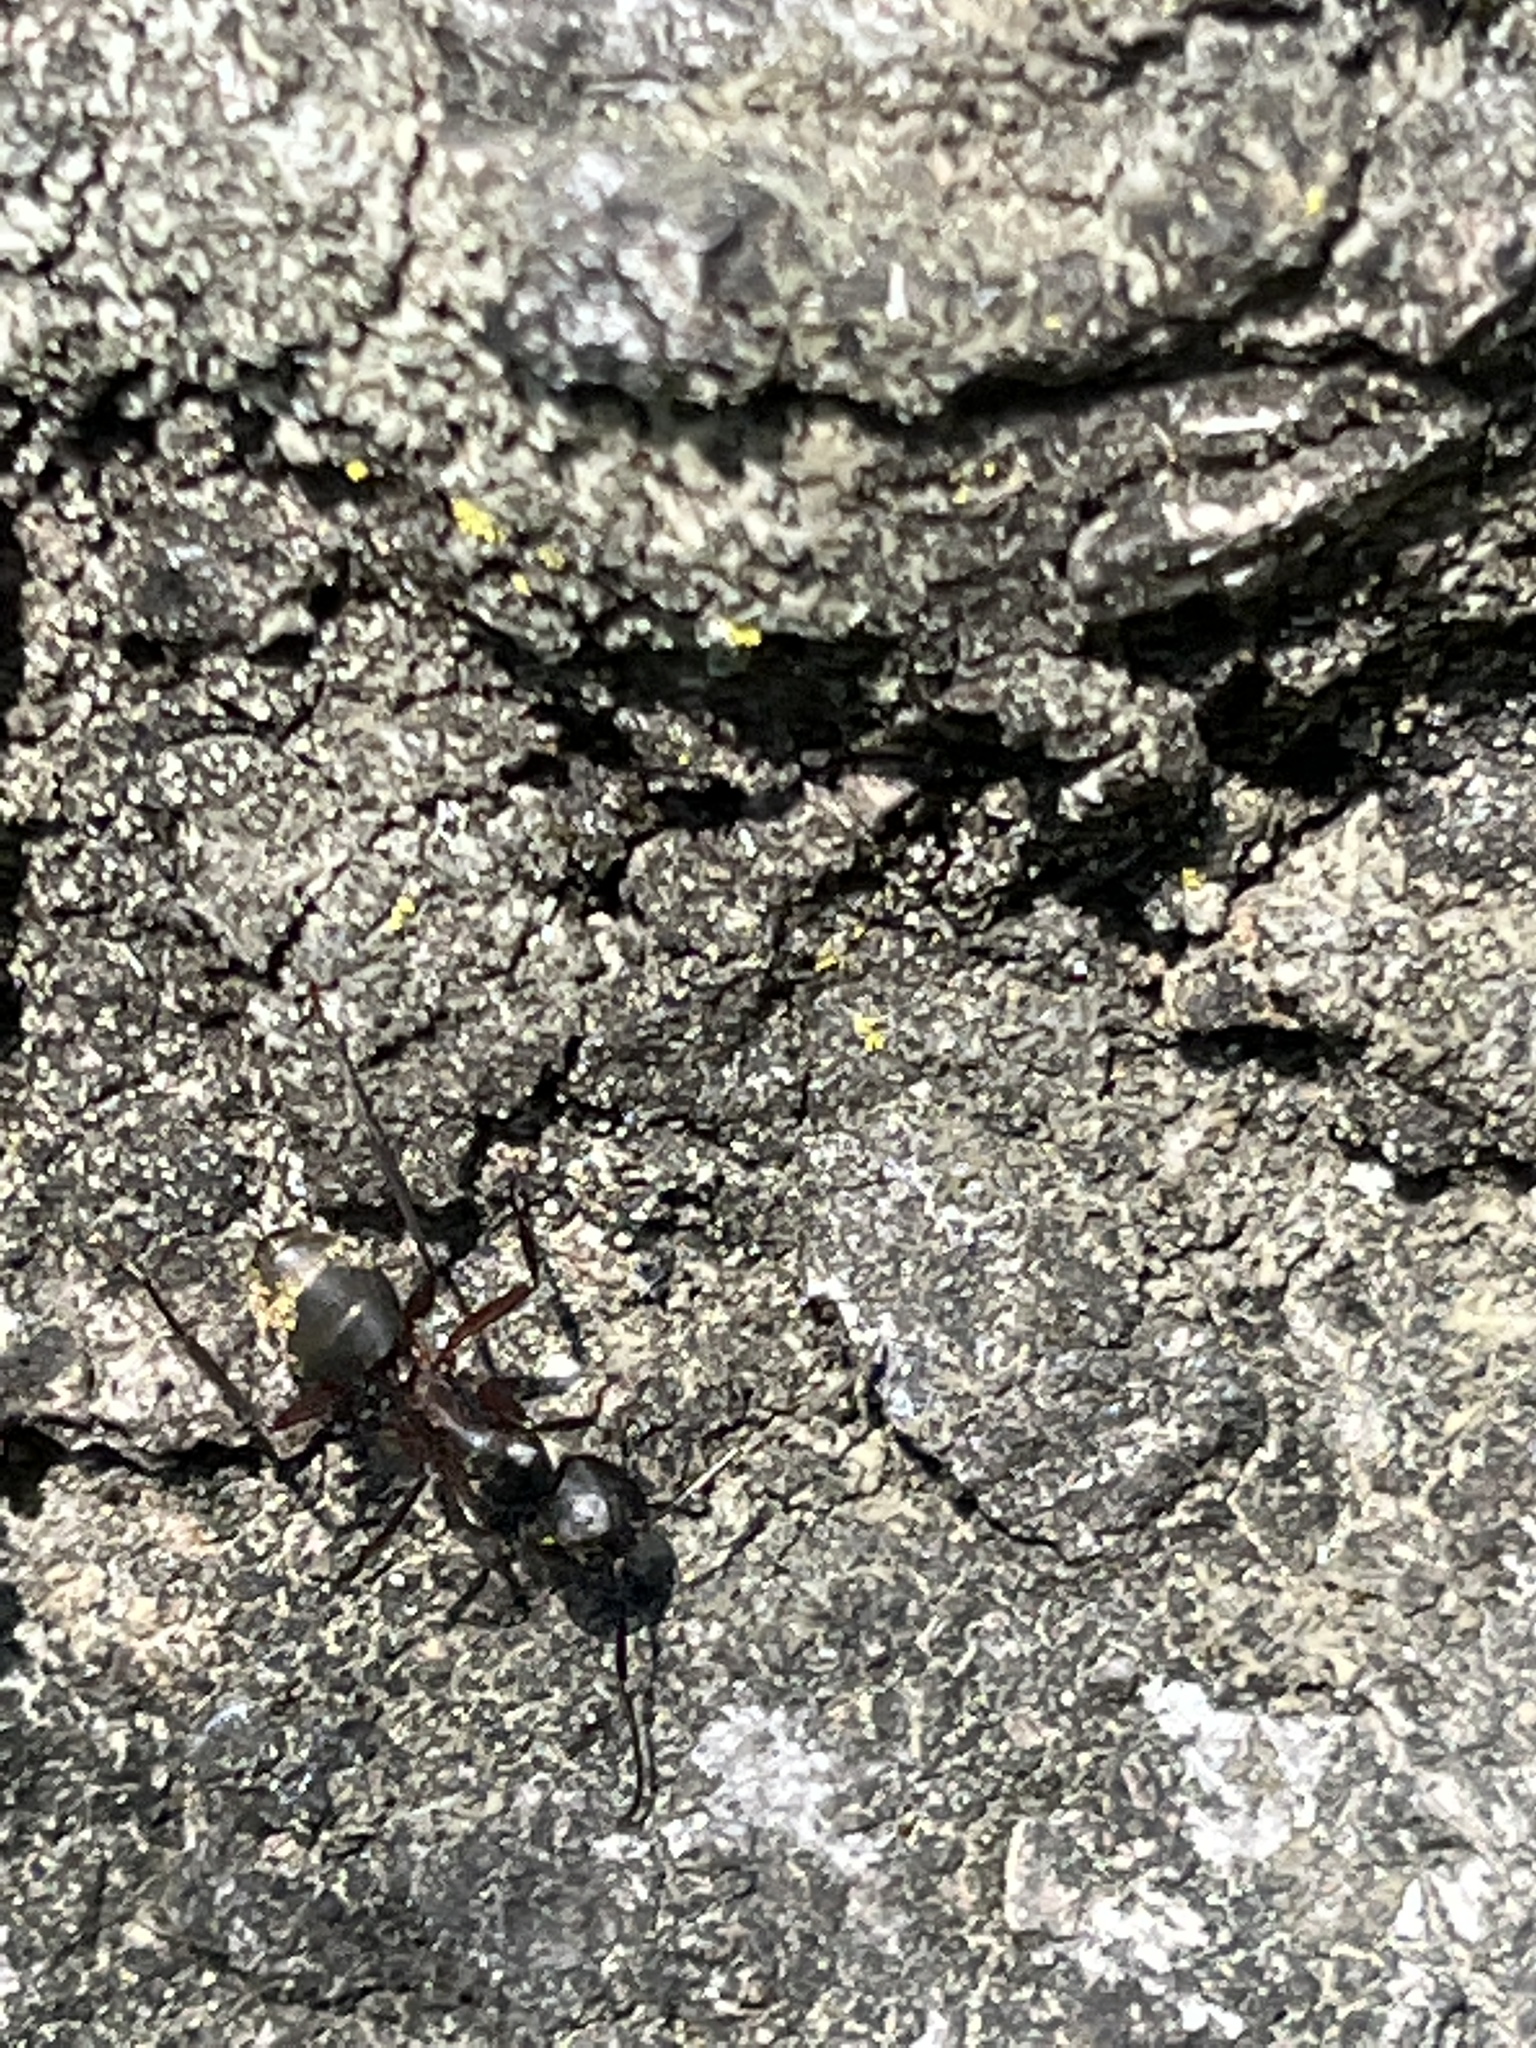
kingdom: Animalia
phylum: Arthropoda
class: Insecta
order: Hymenoptera
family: Formicidae
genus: Camponotus
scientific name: Camponotus chromaiodes
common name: Red carpenter ant
